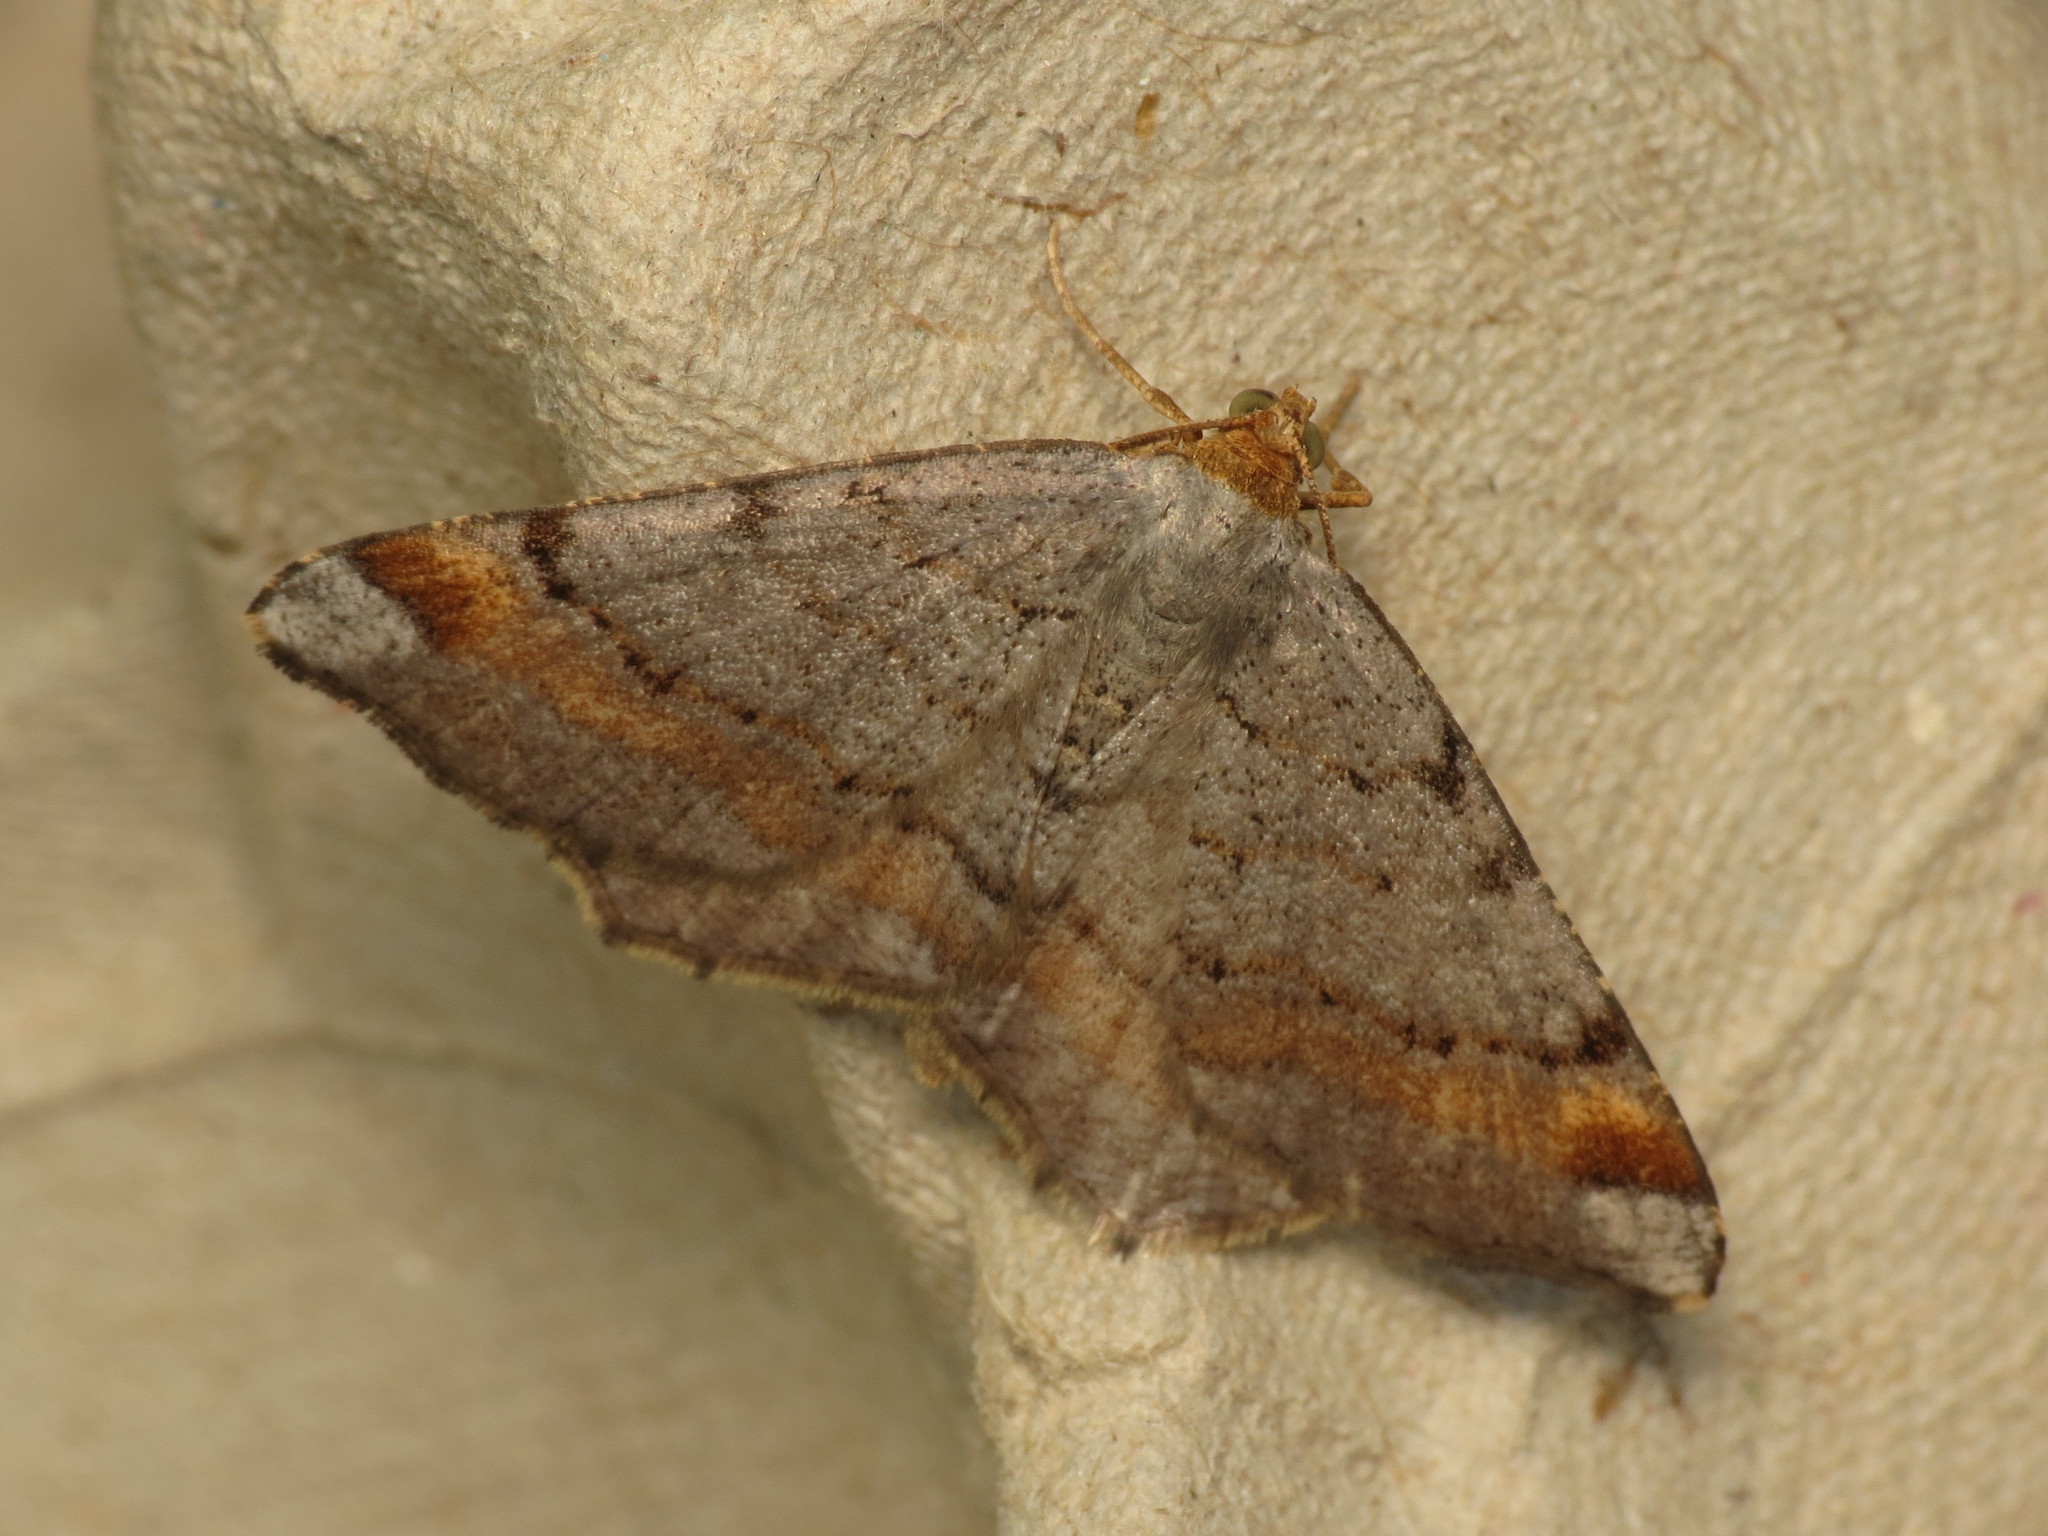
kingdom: Animalia
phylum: Arthropoda
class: Insecta
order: Lepidoptera
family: Geometridae
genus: Macaria
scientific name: Macaria liturata
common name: Tawny-barred angle
